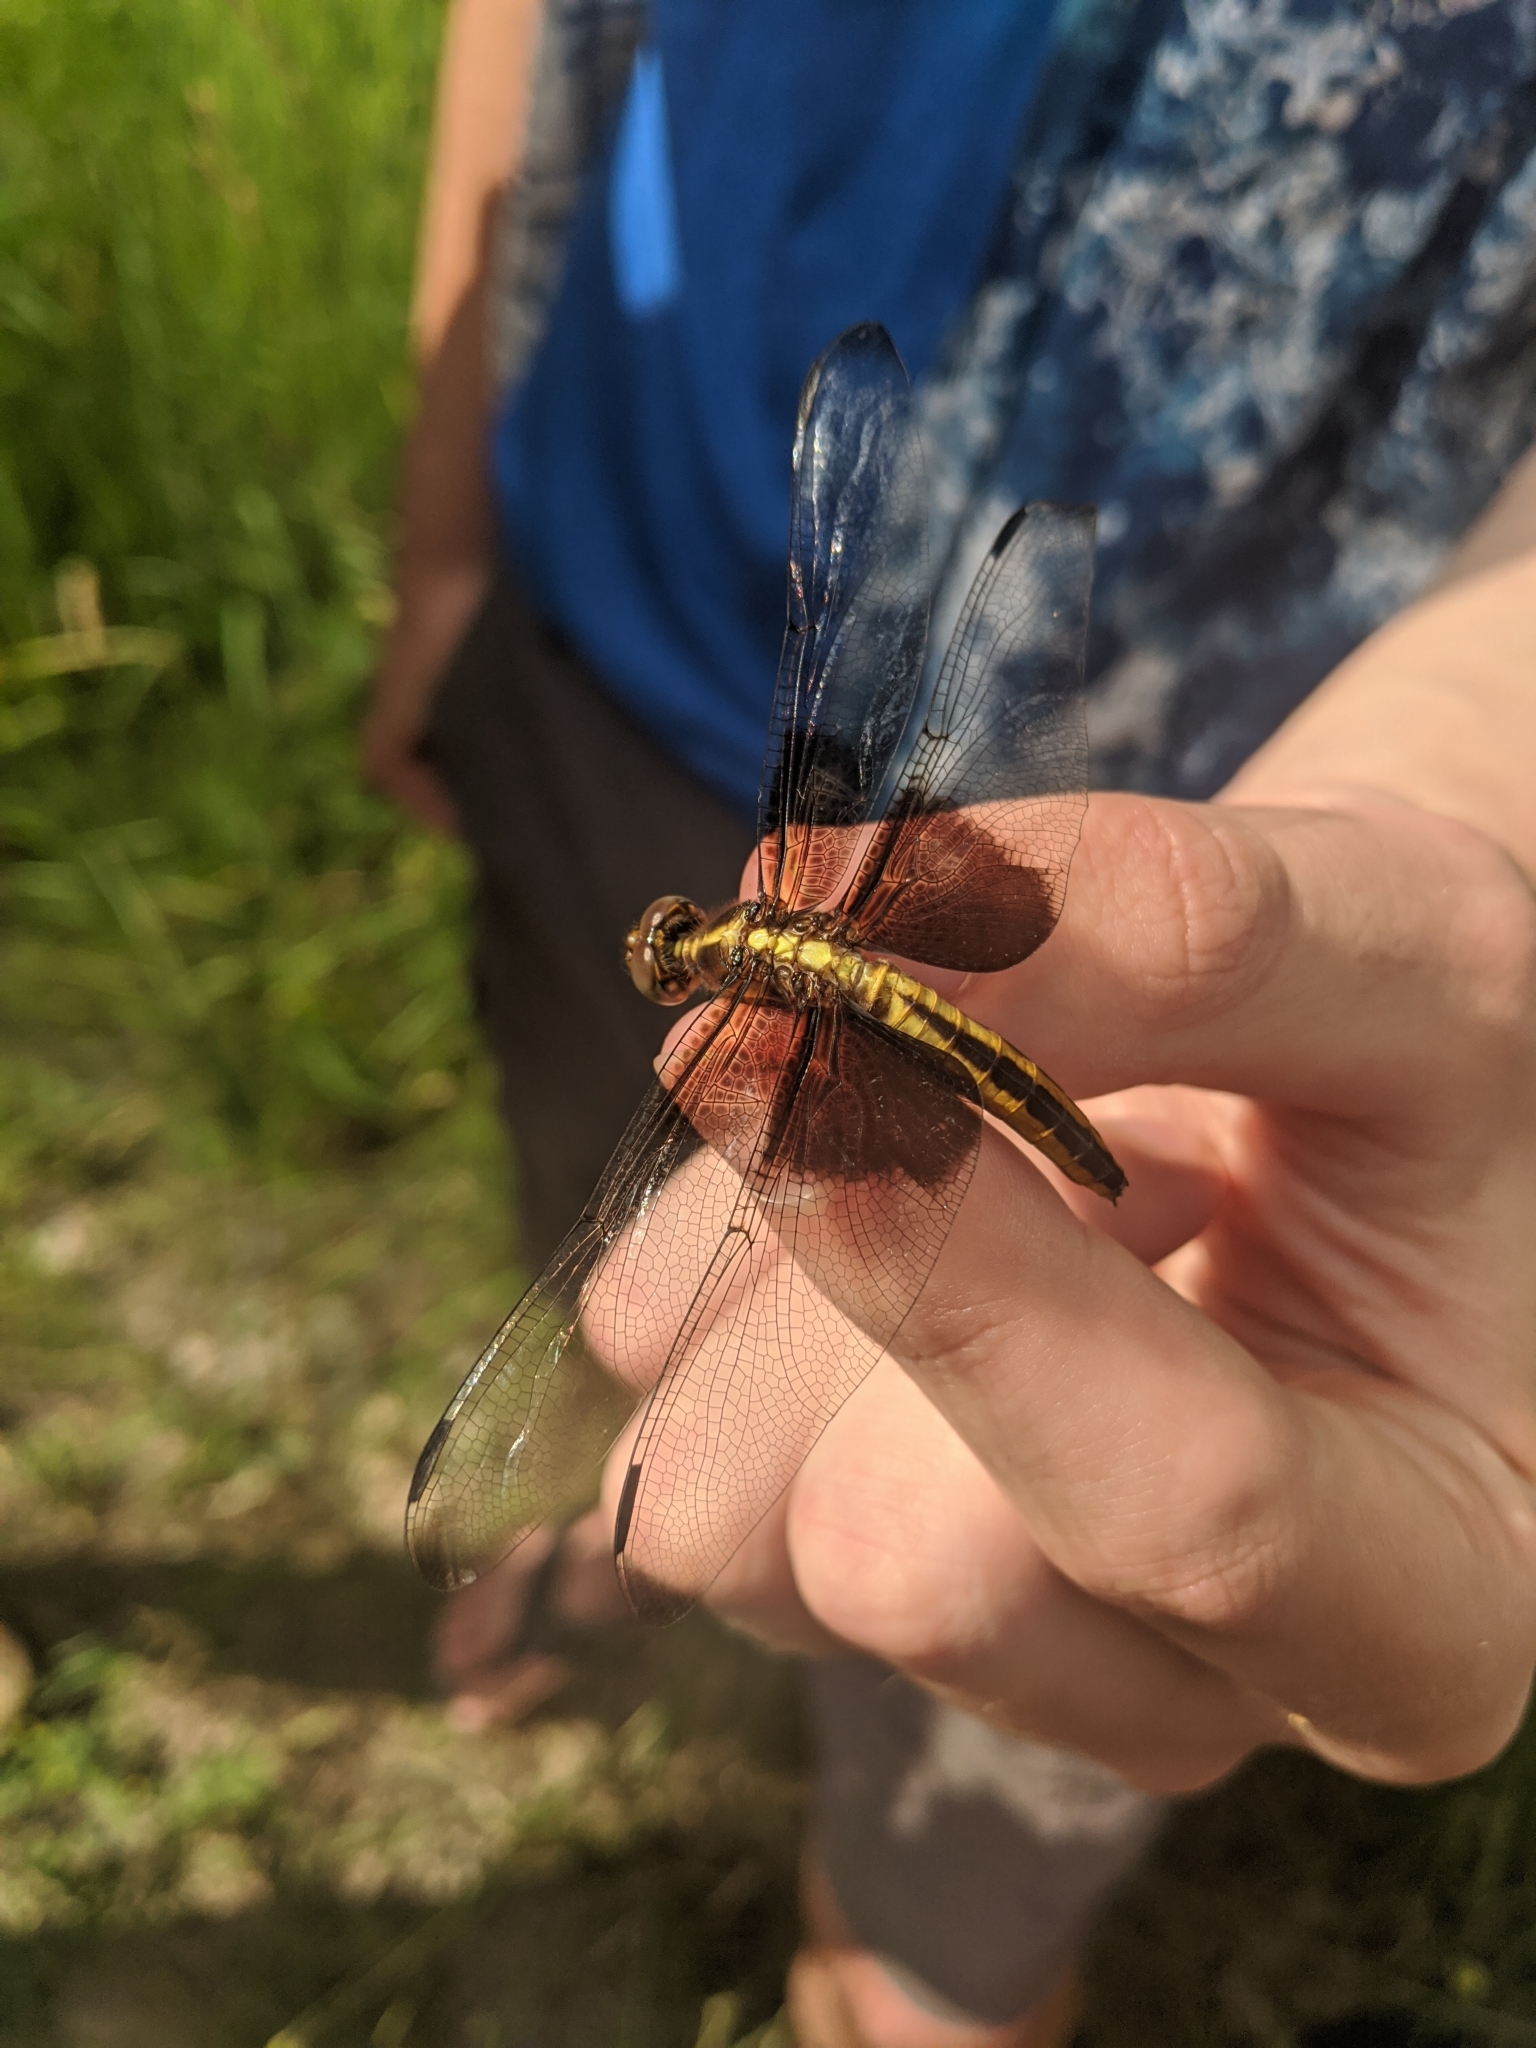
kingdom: Animalia
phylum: Arthropoda
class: Insecta
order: Odonata
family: Libellulidae
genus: Libellula
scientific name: Libellula luctuosa
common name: Widow skimmer
